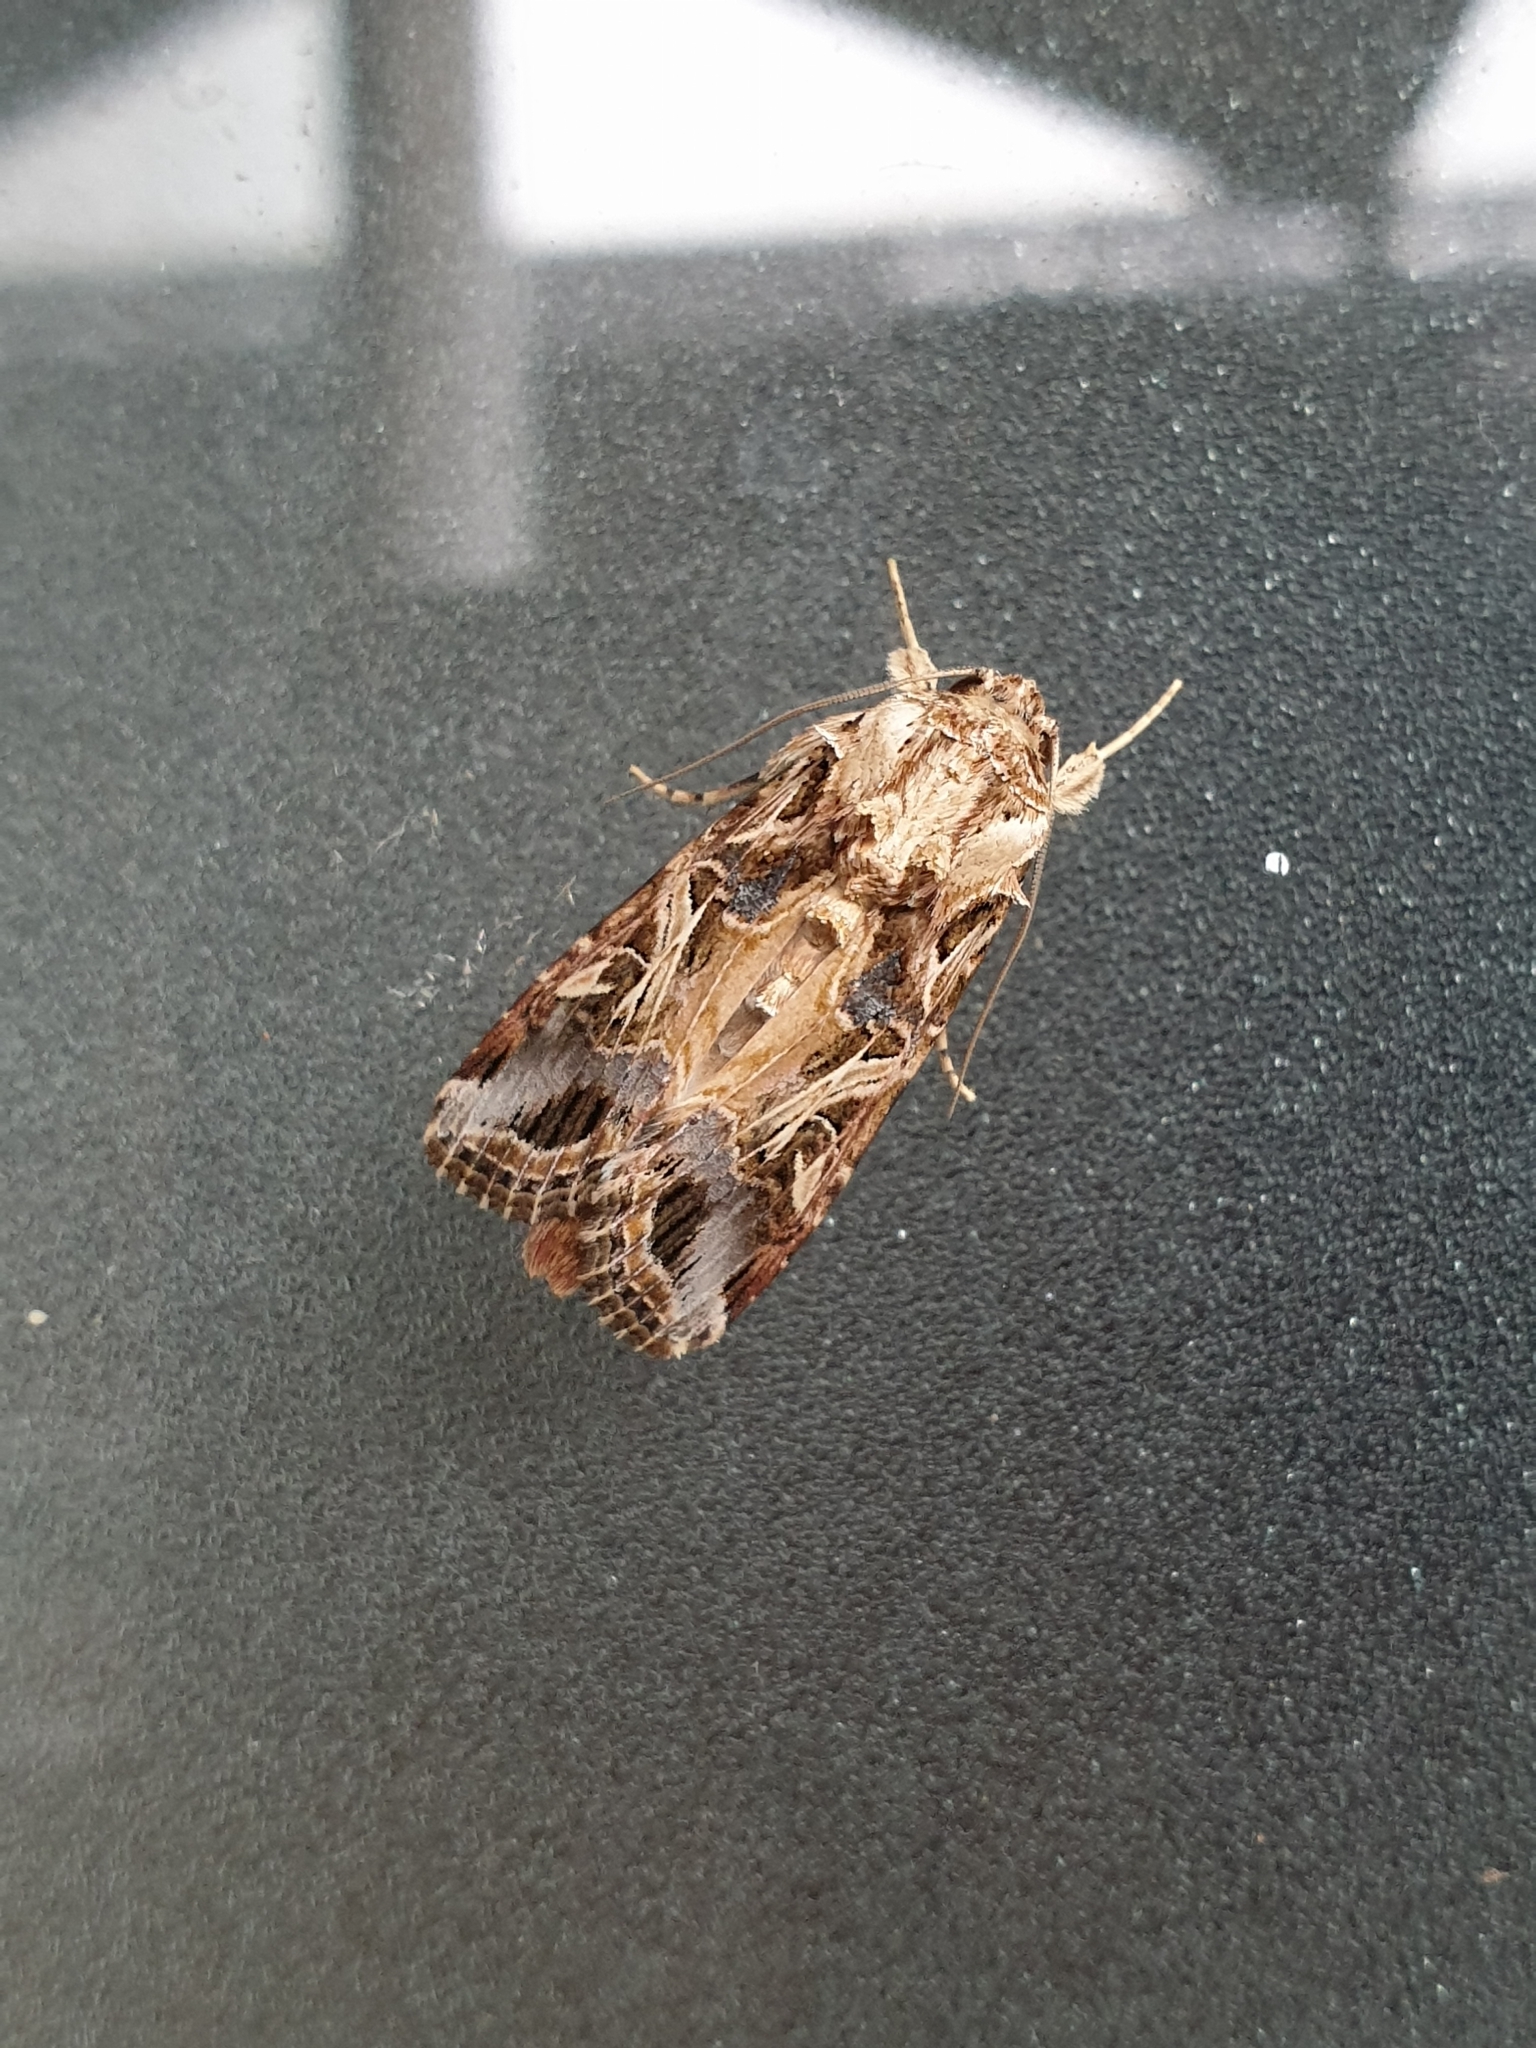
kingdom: Animalia
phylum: Arthropoda
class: Insecta
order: Lepidoptera
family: Noctuidae
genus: Spodoptera
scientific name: Spodoptera litura
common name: Asian cotton leafworm
